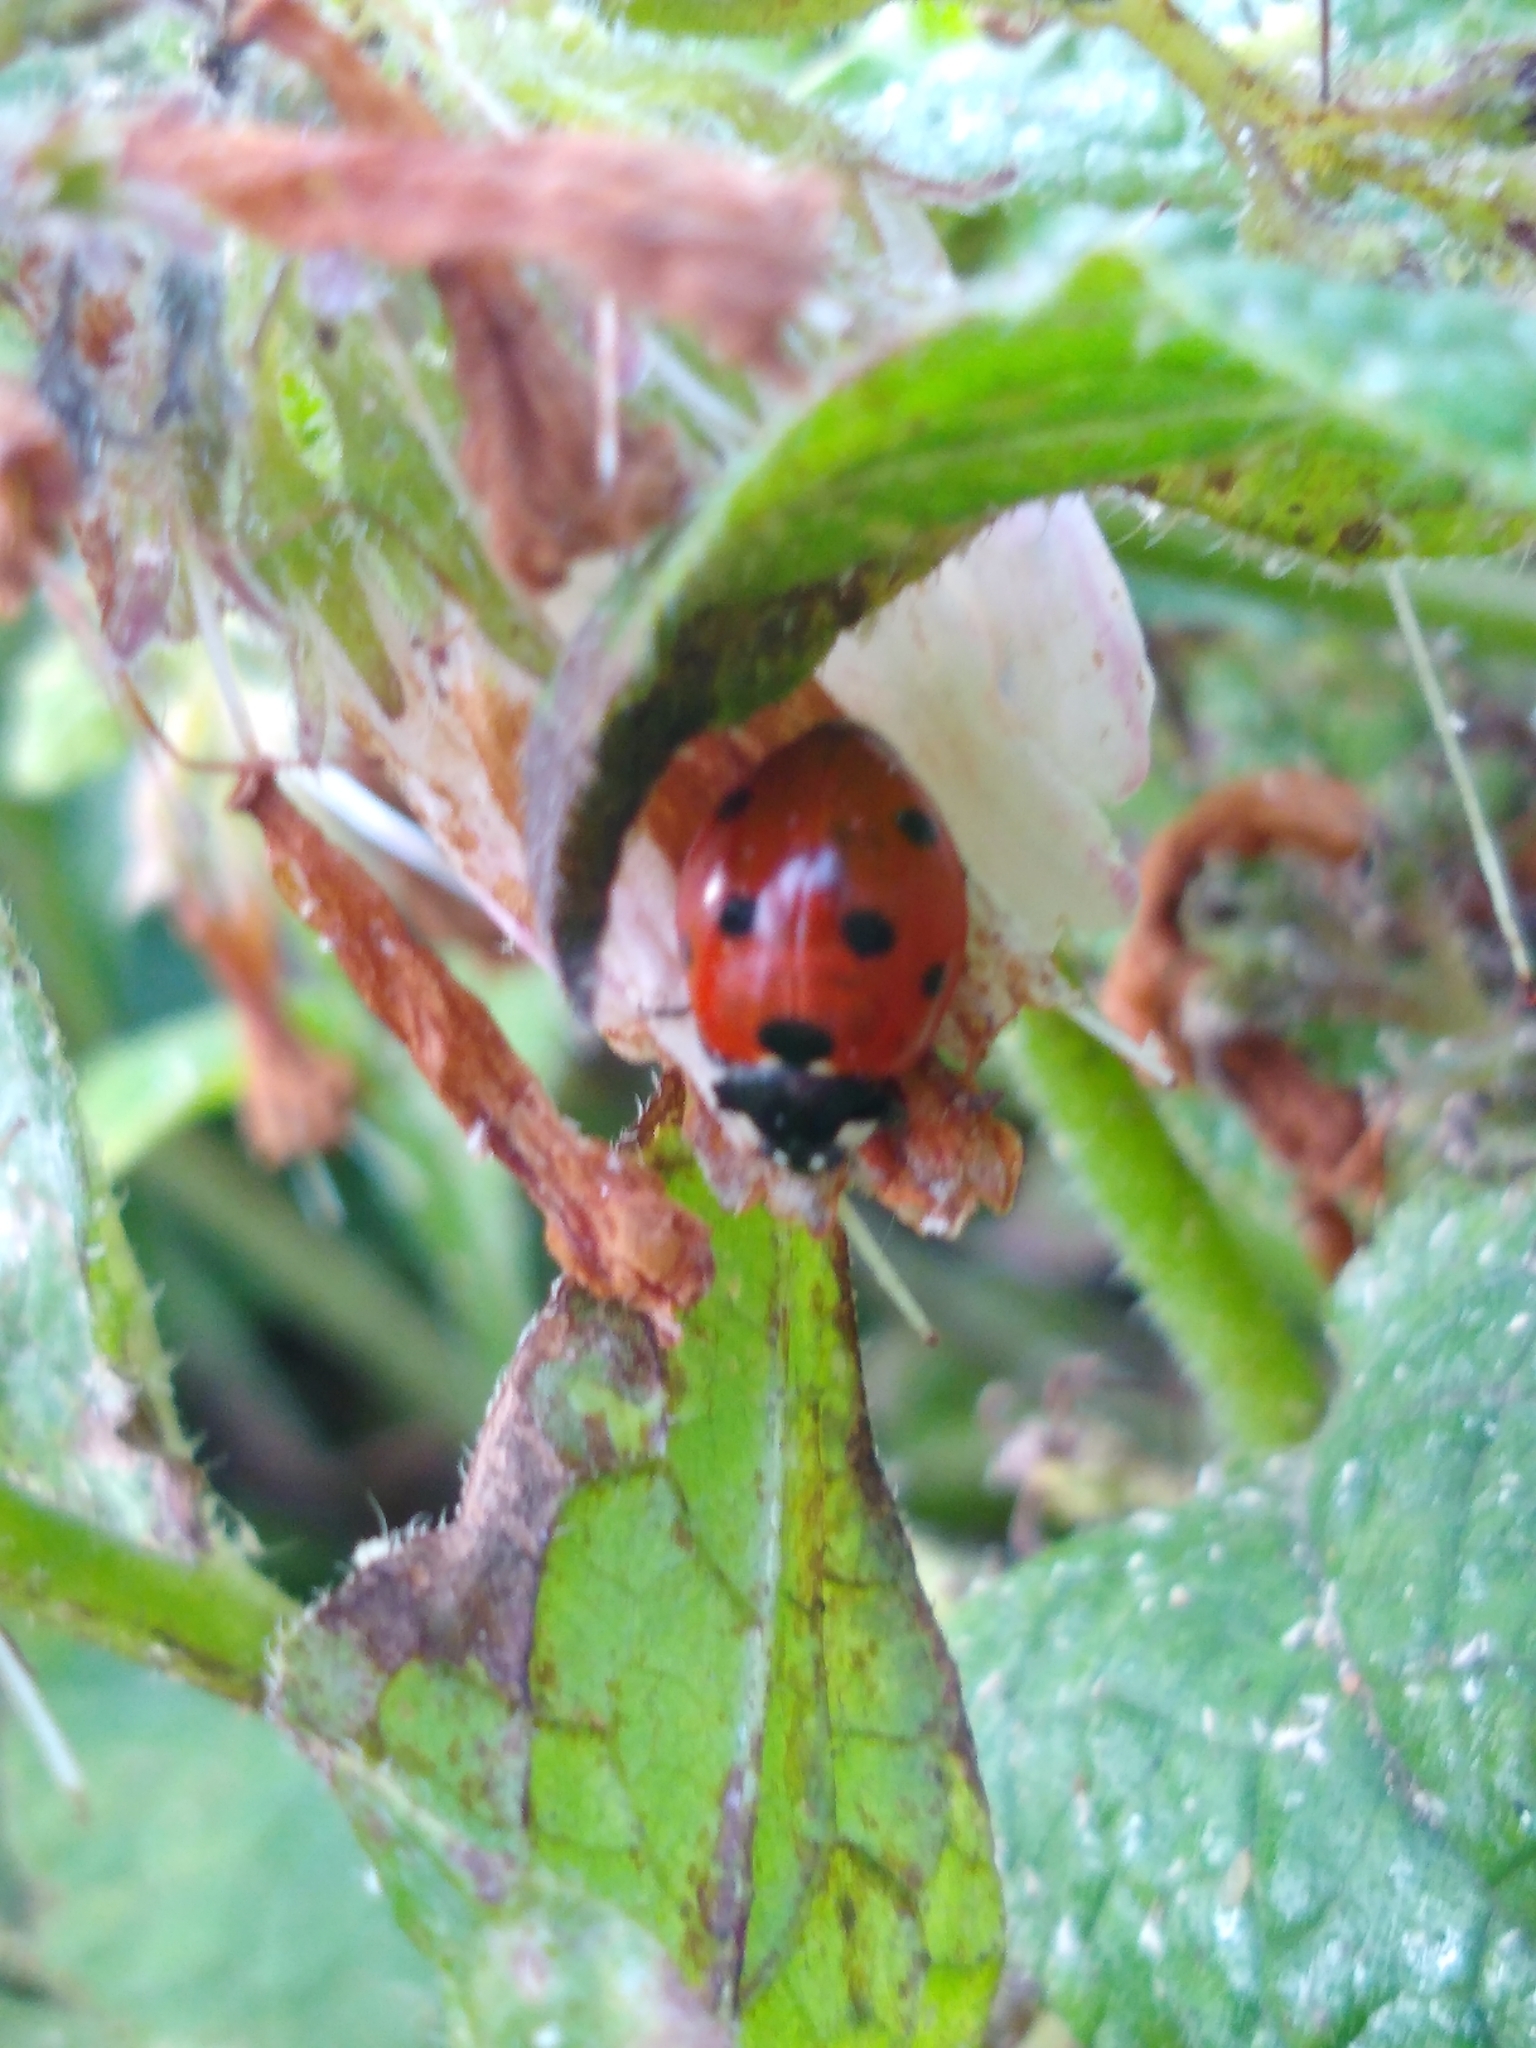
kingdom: Animalia
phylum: Arthropoda
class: Insecta
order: Coleoptera
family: Coccinellidae
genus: Coccinella
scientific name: Coccinella septempunctata
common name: Sevenspotted lady beetle
